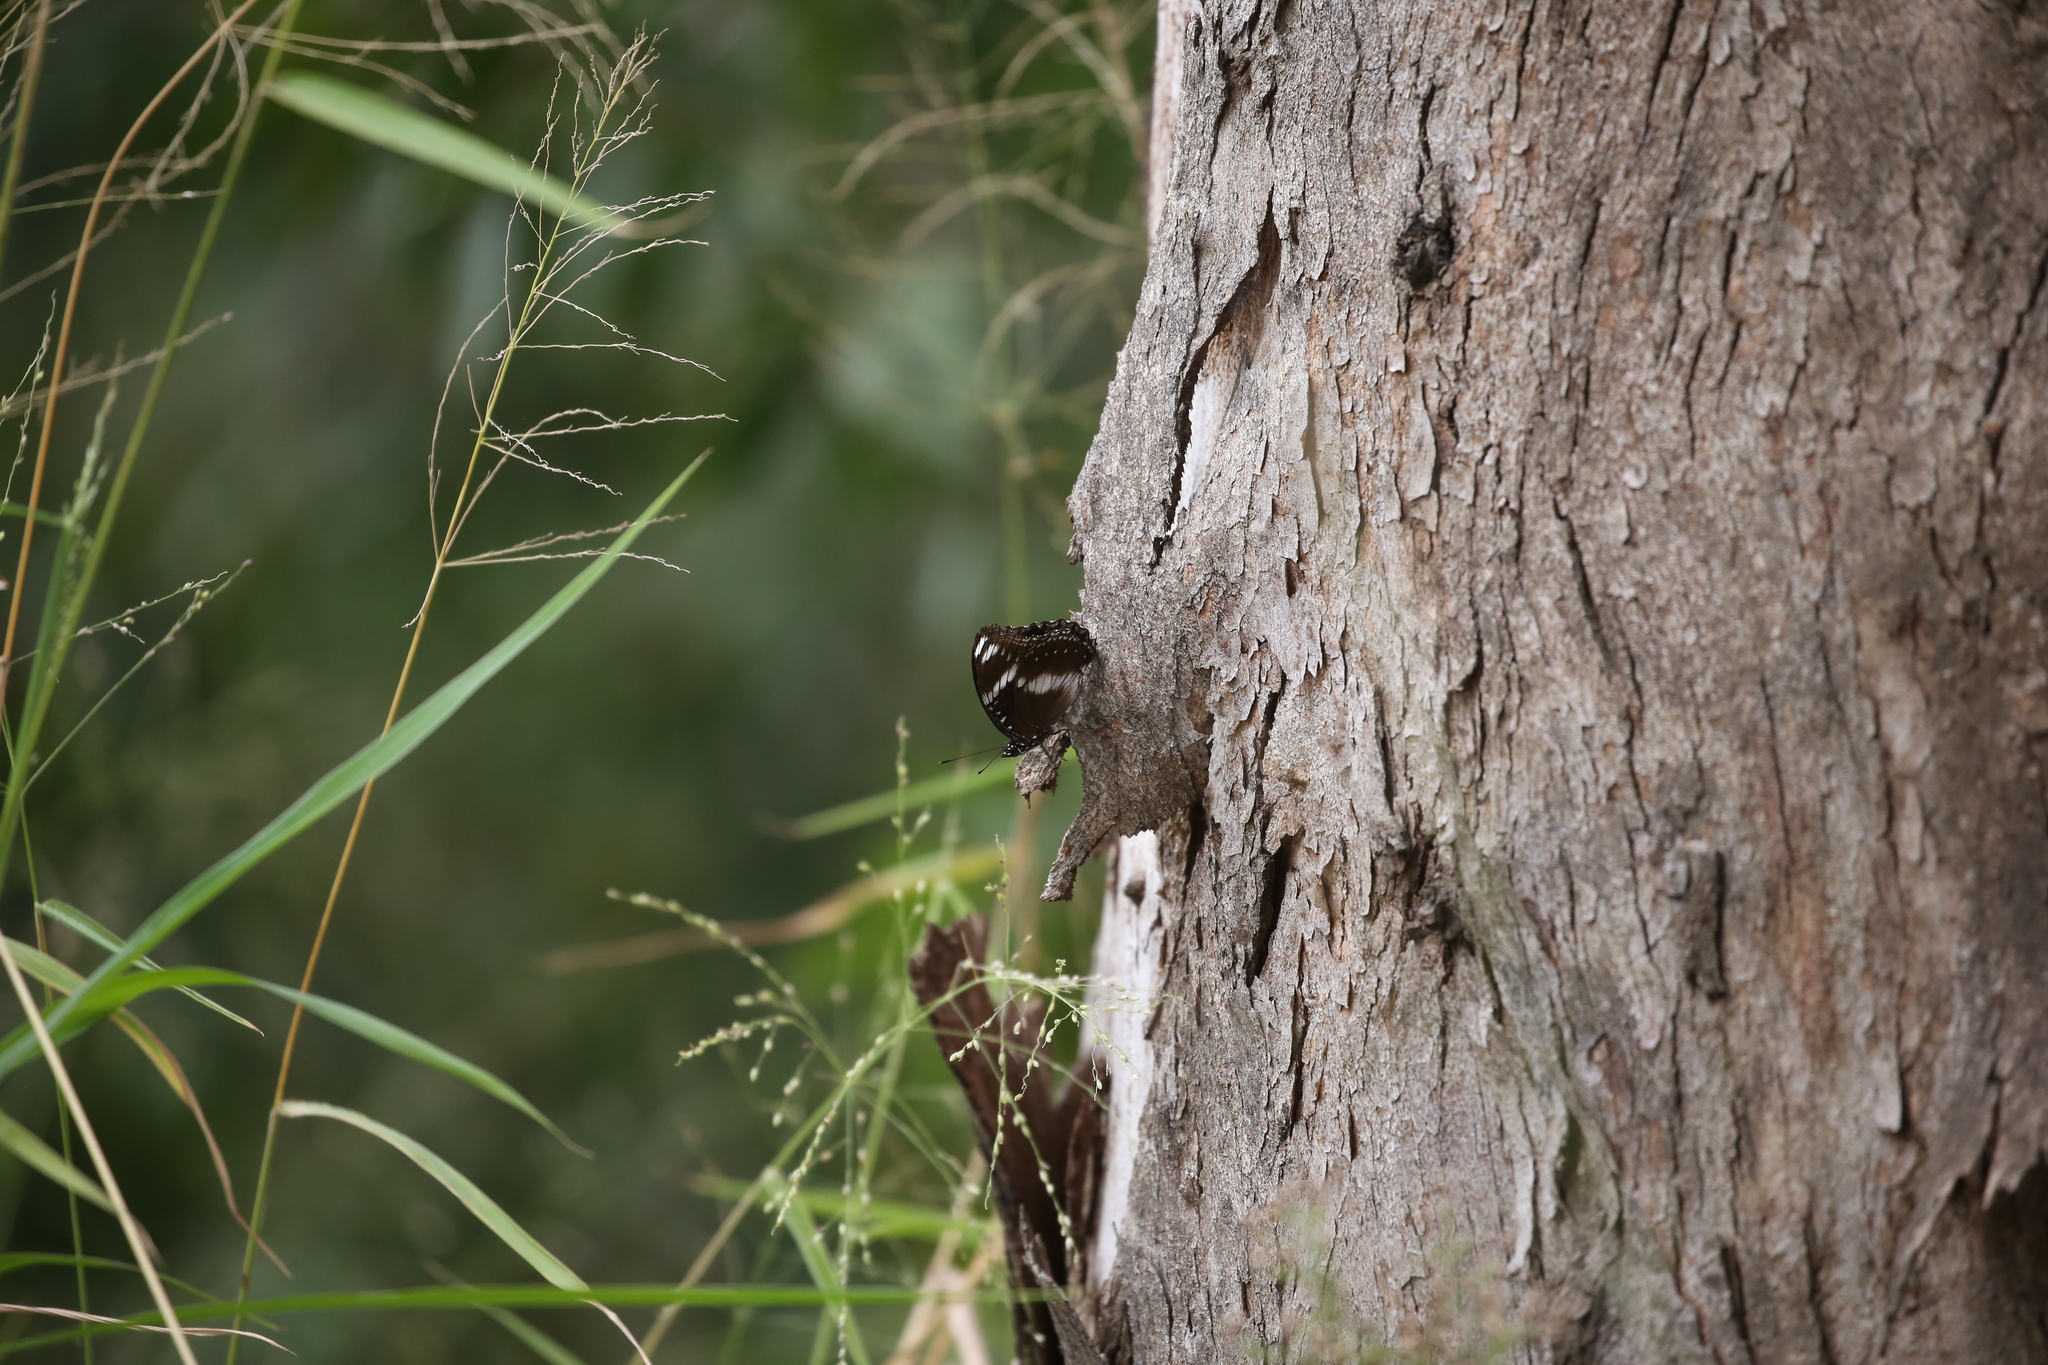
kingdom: Animalia
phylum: Arthropoda
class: Insecta
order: Lepidoptera
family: Nymphalidae
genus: Hypolimnas
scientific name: Hypolimnas bolina
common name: Great eggfly
